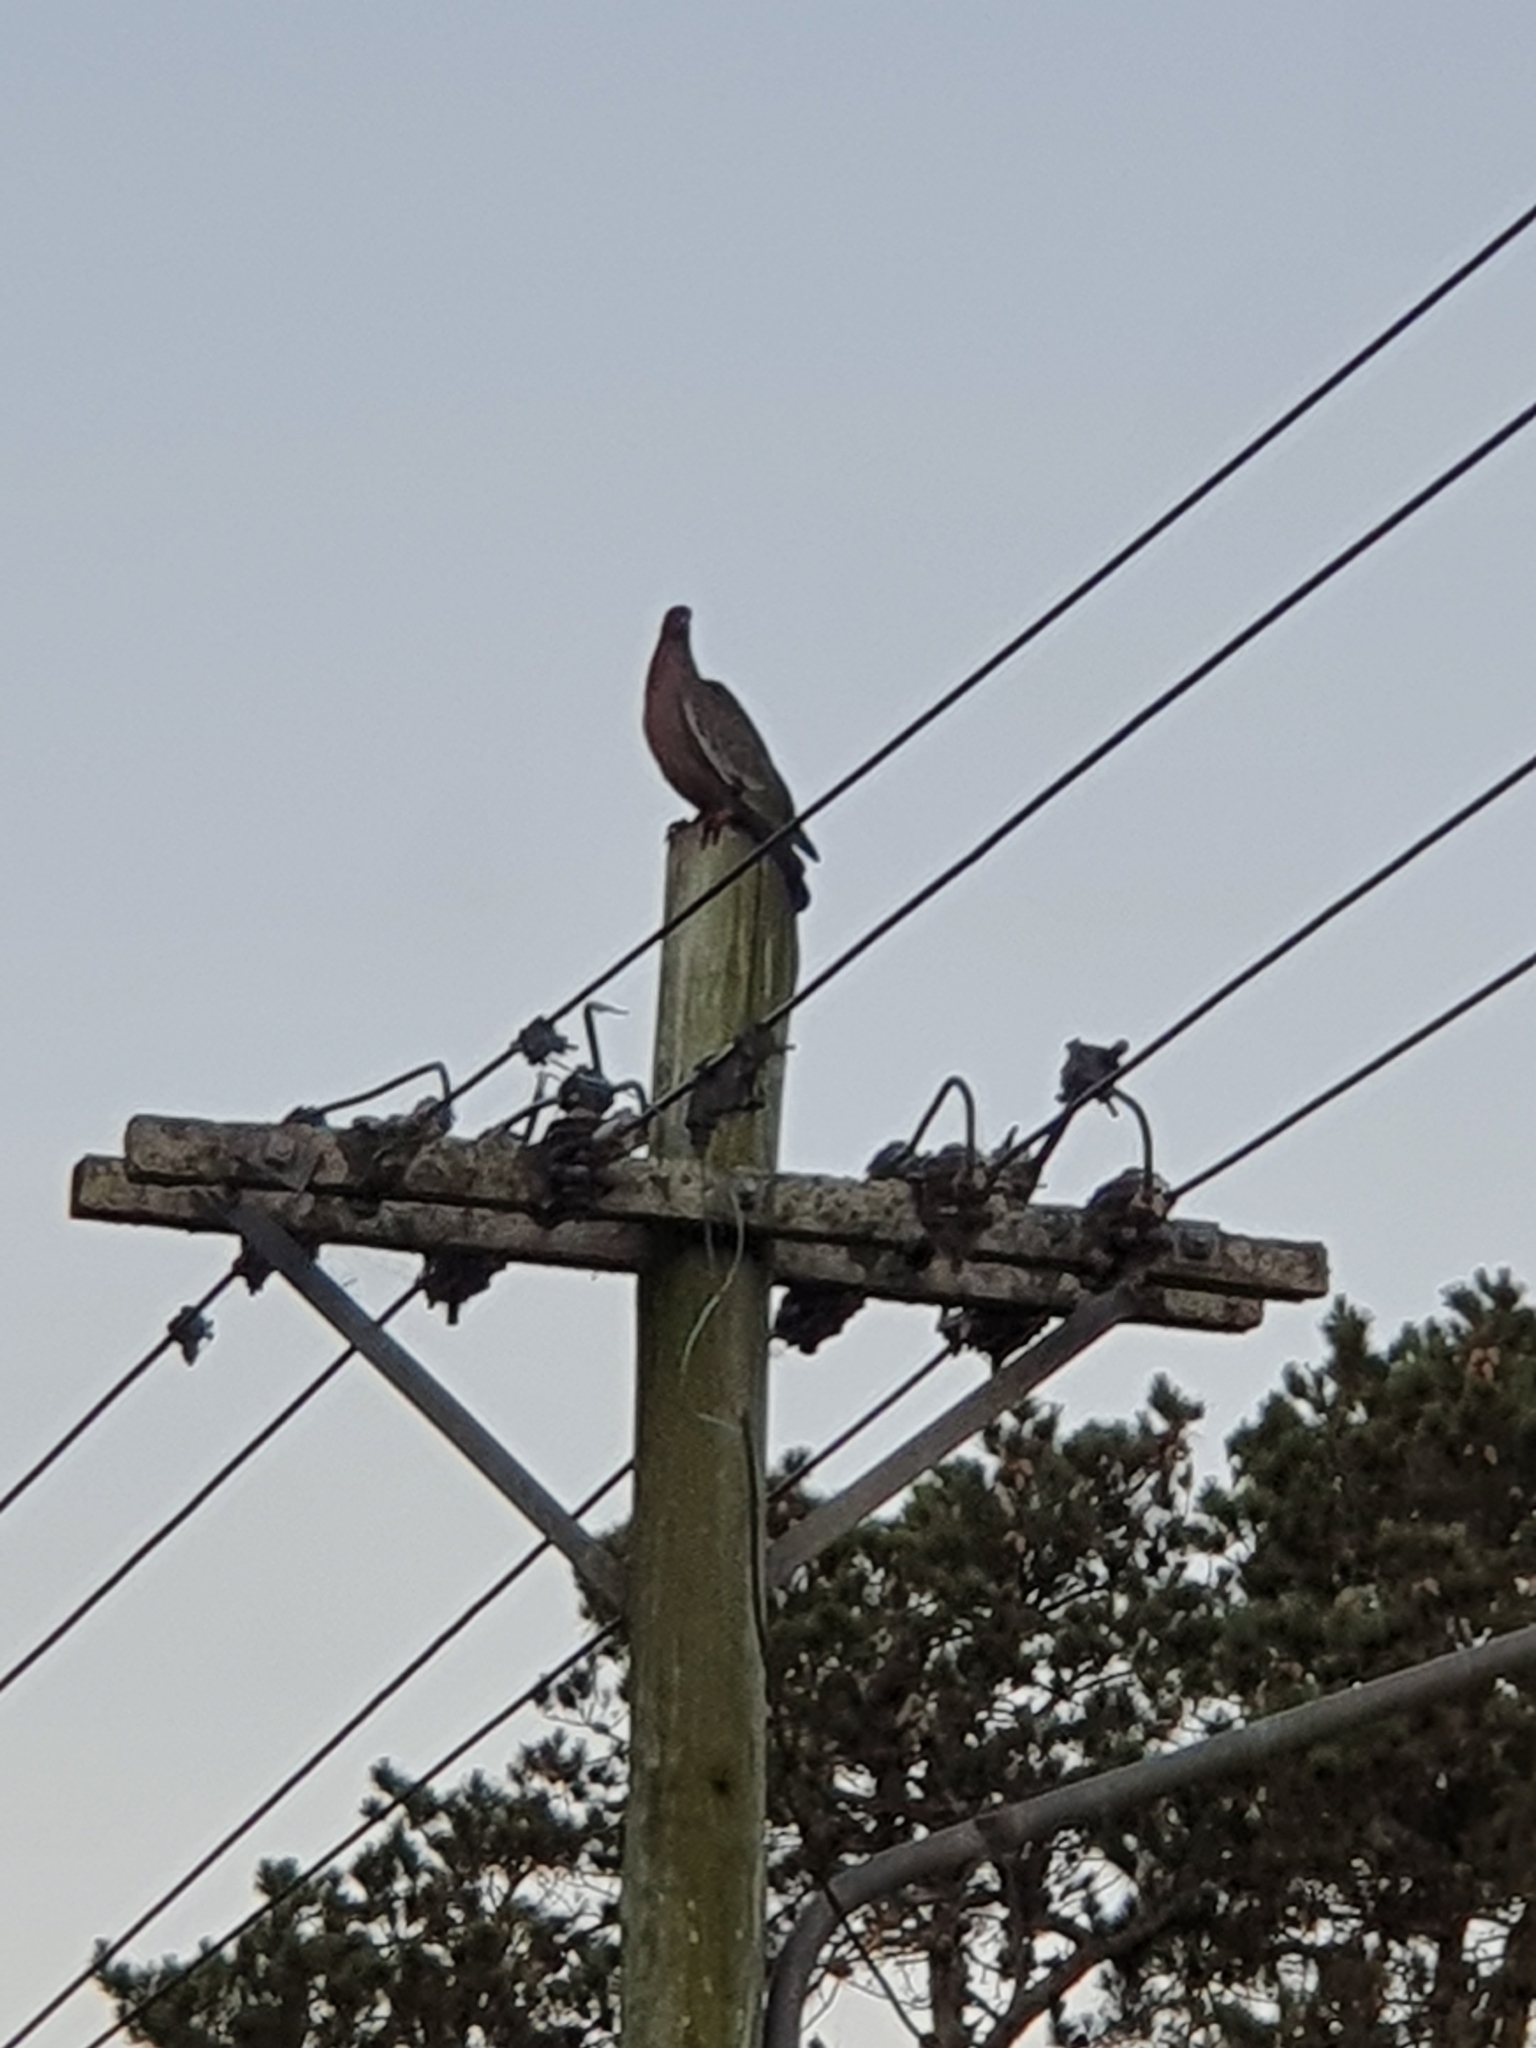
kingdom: Animalia
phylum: Chordata
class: Aves
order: Columbiformes
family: Columbidae
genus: Patagioenas
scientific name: Patagioenas picazuro
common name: Picazuro pigeon
